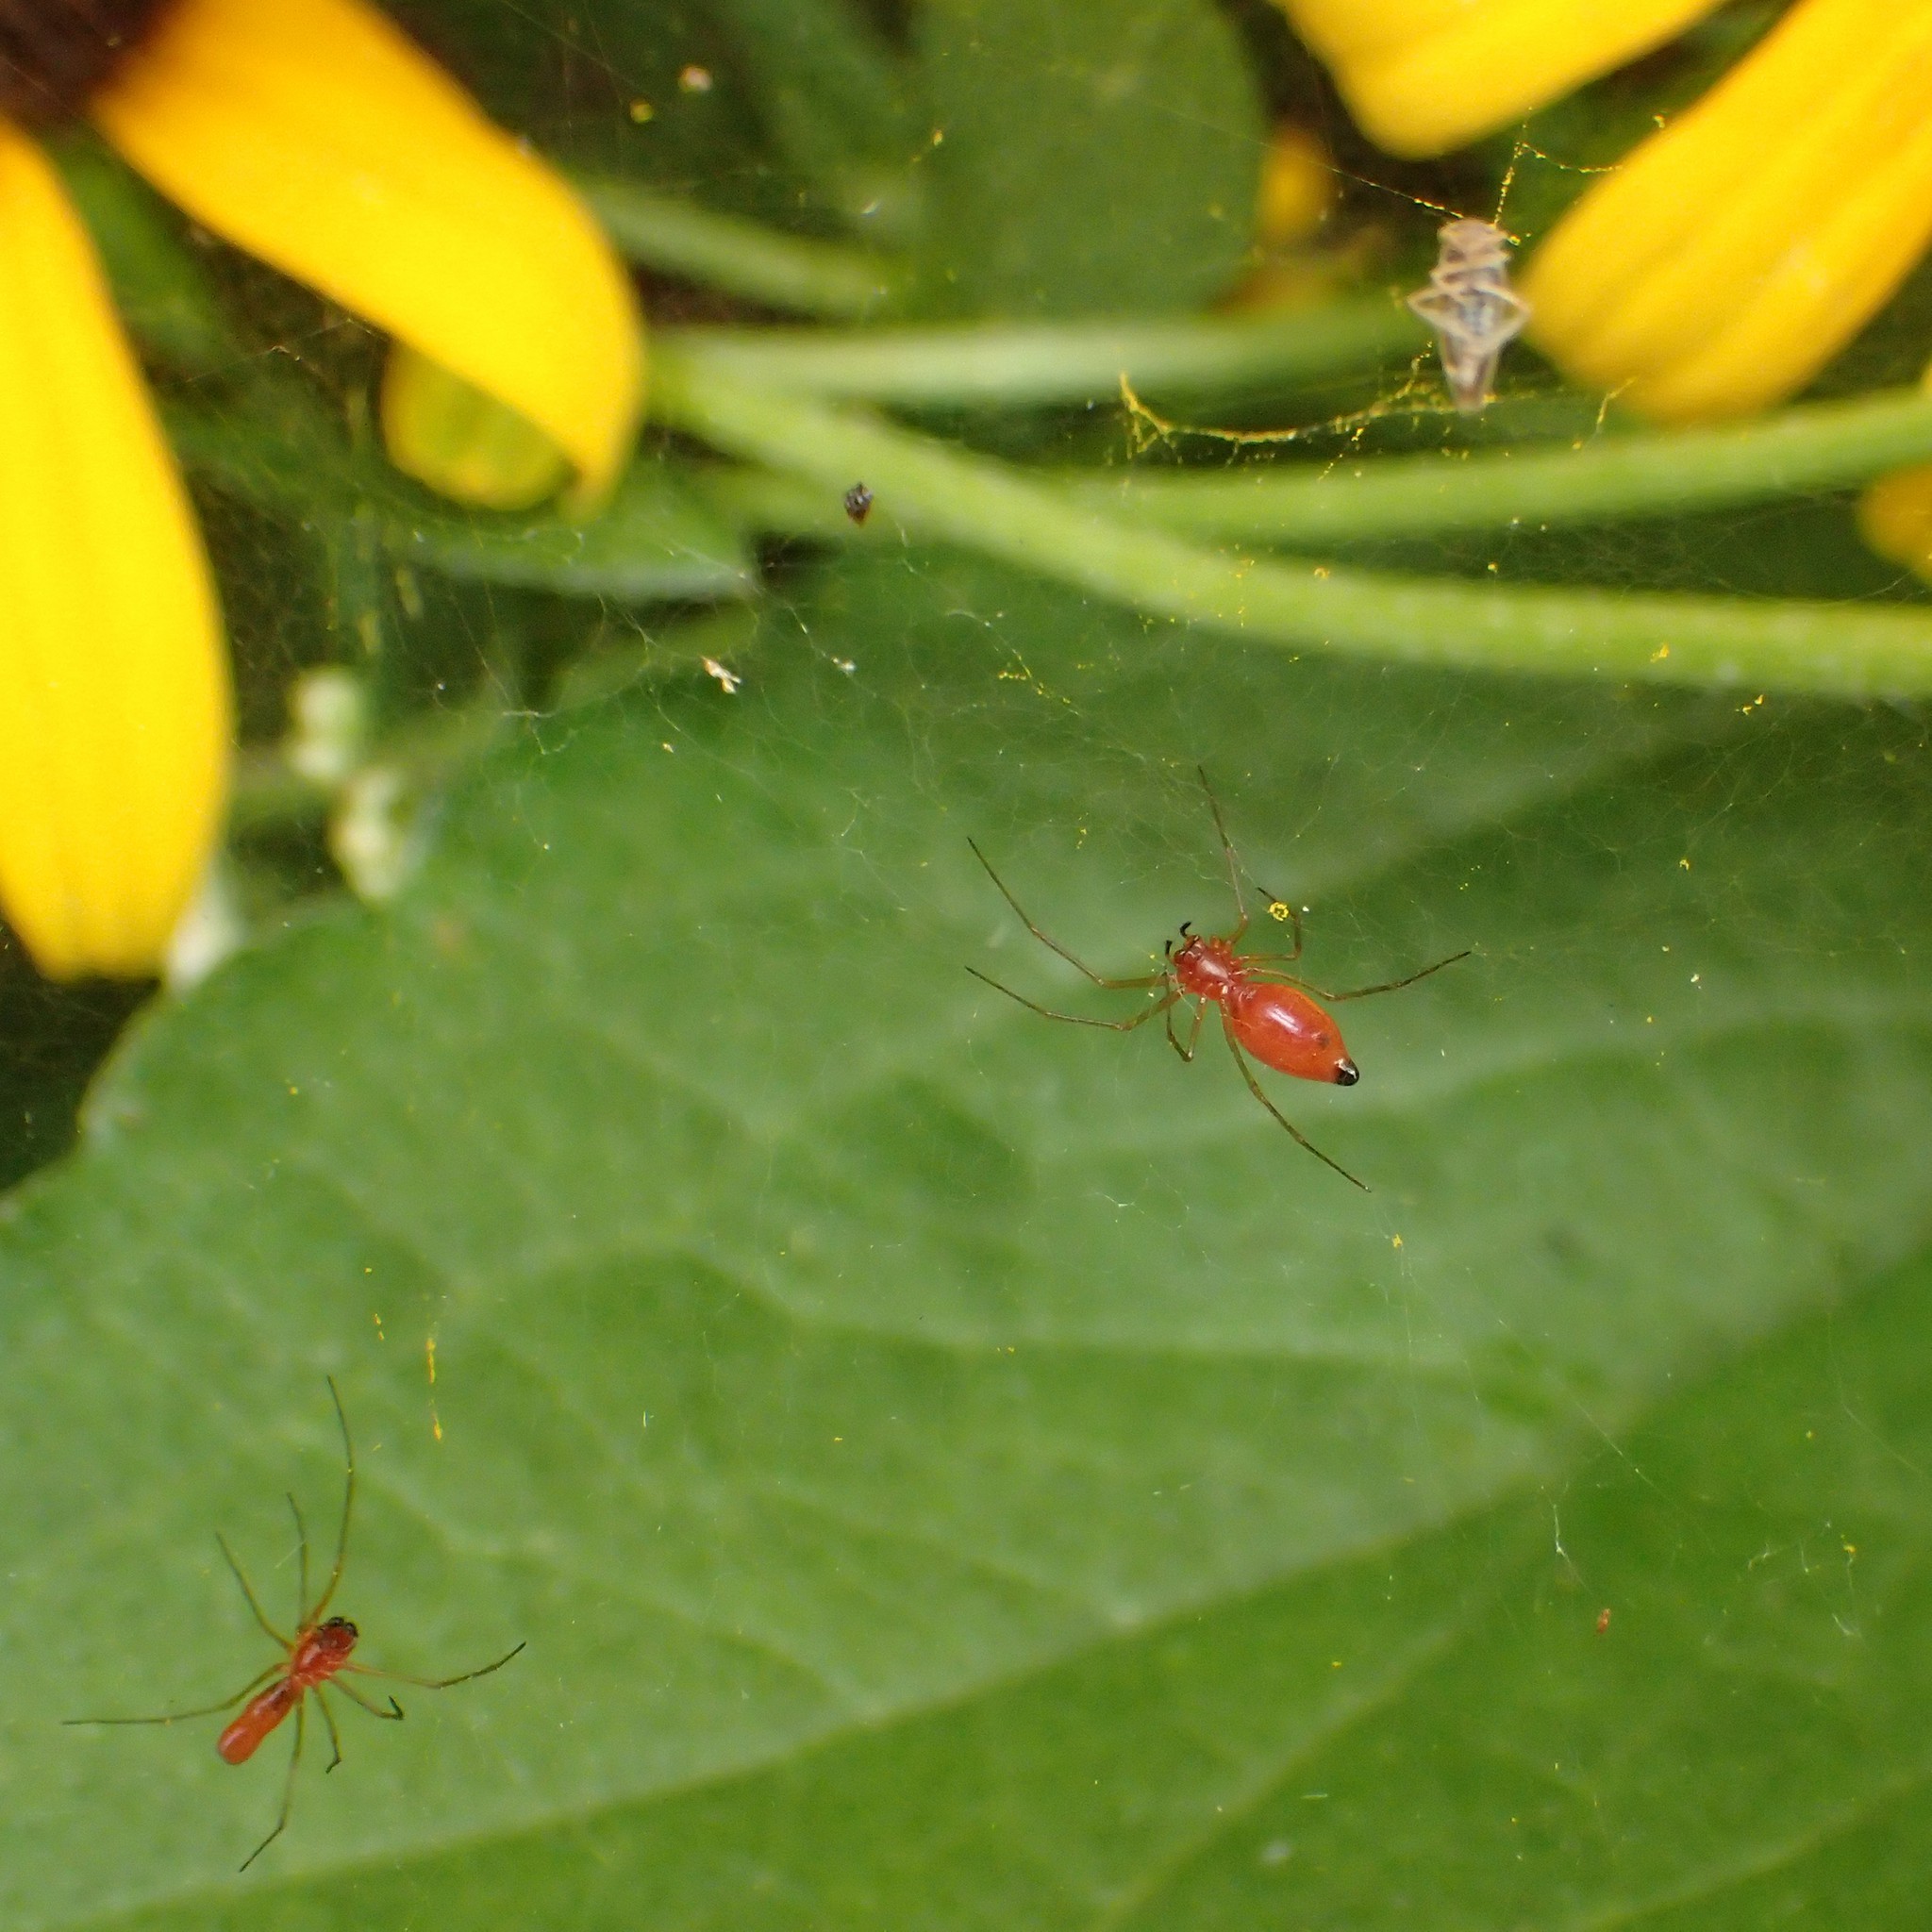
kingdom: Animalia
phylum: Arthropoda
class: Arachnida
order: Araneae
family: Linyphiidae
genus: Florinda
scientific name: Florinda coccinea
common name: Black-tailed red sheetweaver
